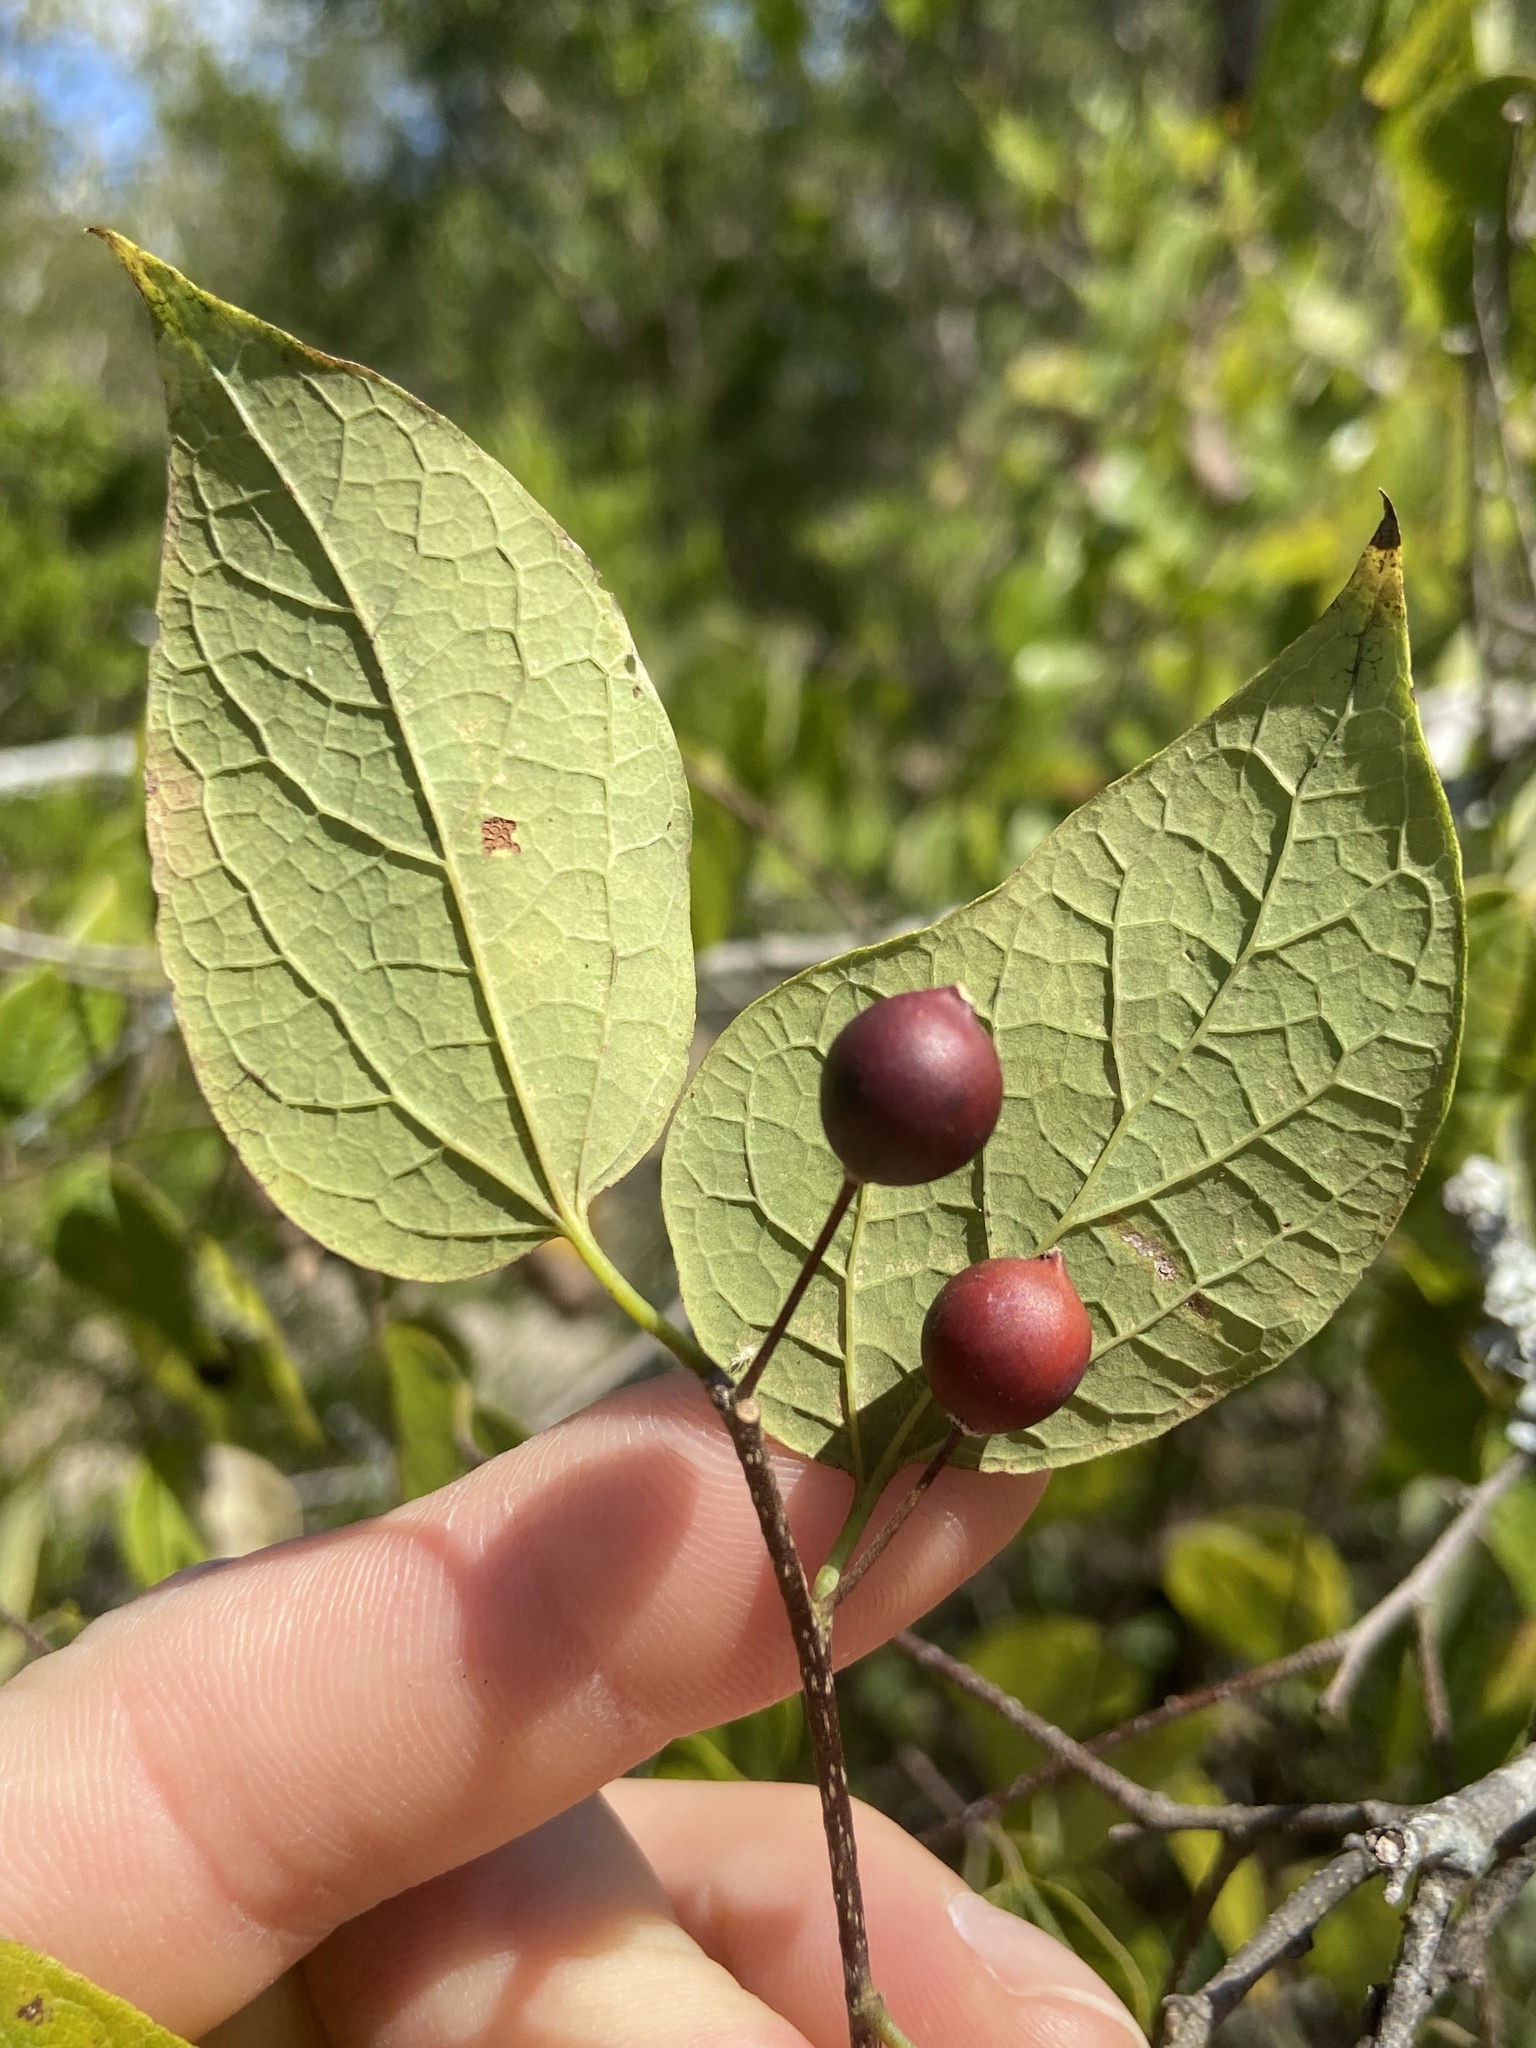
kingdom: Plantae
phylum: Tracheophyta
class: Magnoliopsida
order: Rosales
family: Cannabaceae
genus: Celtis
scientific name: Celtis tenuifolia
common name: Georgia hackberry
